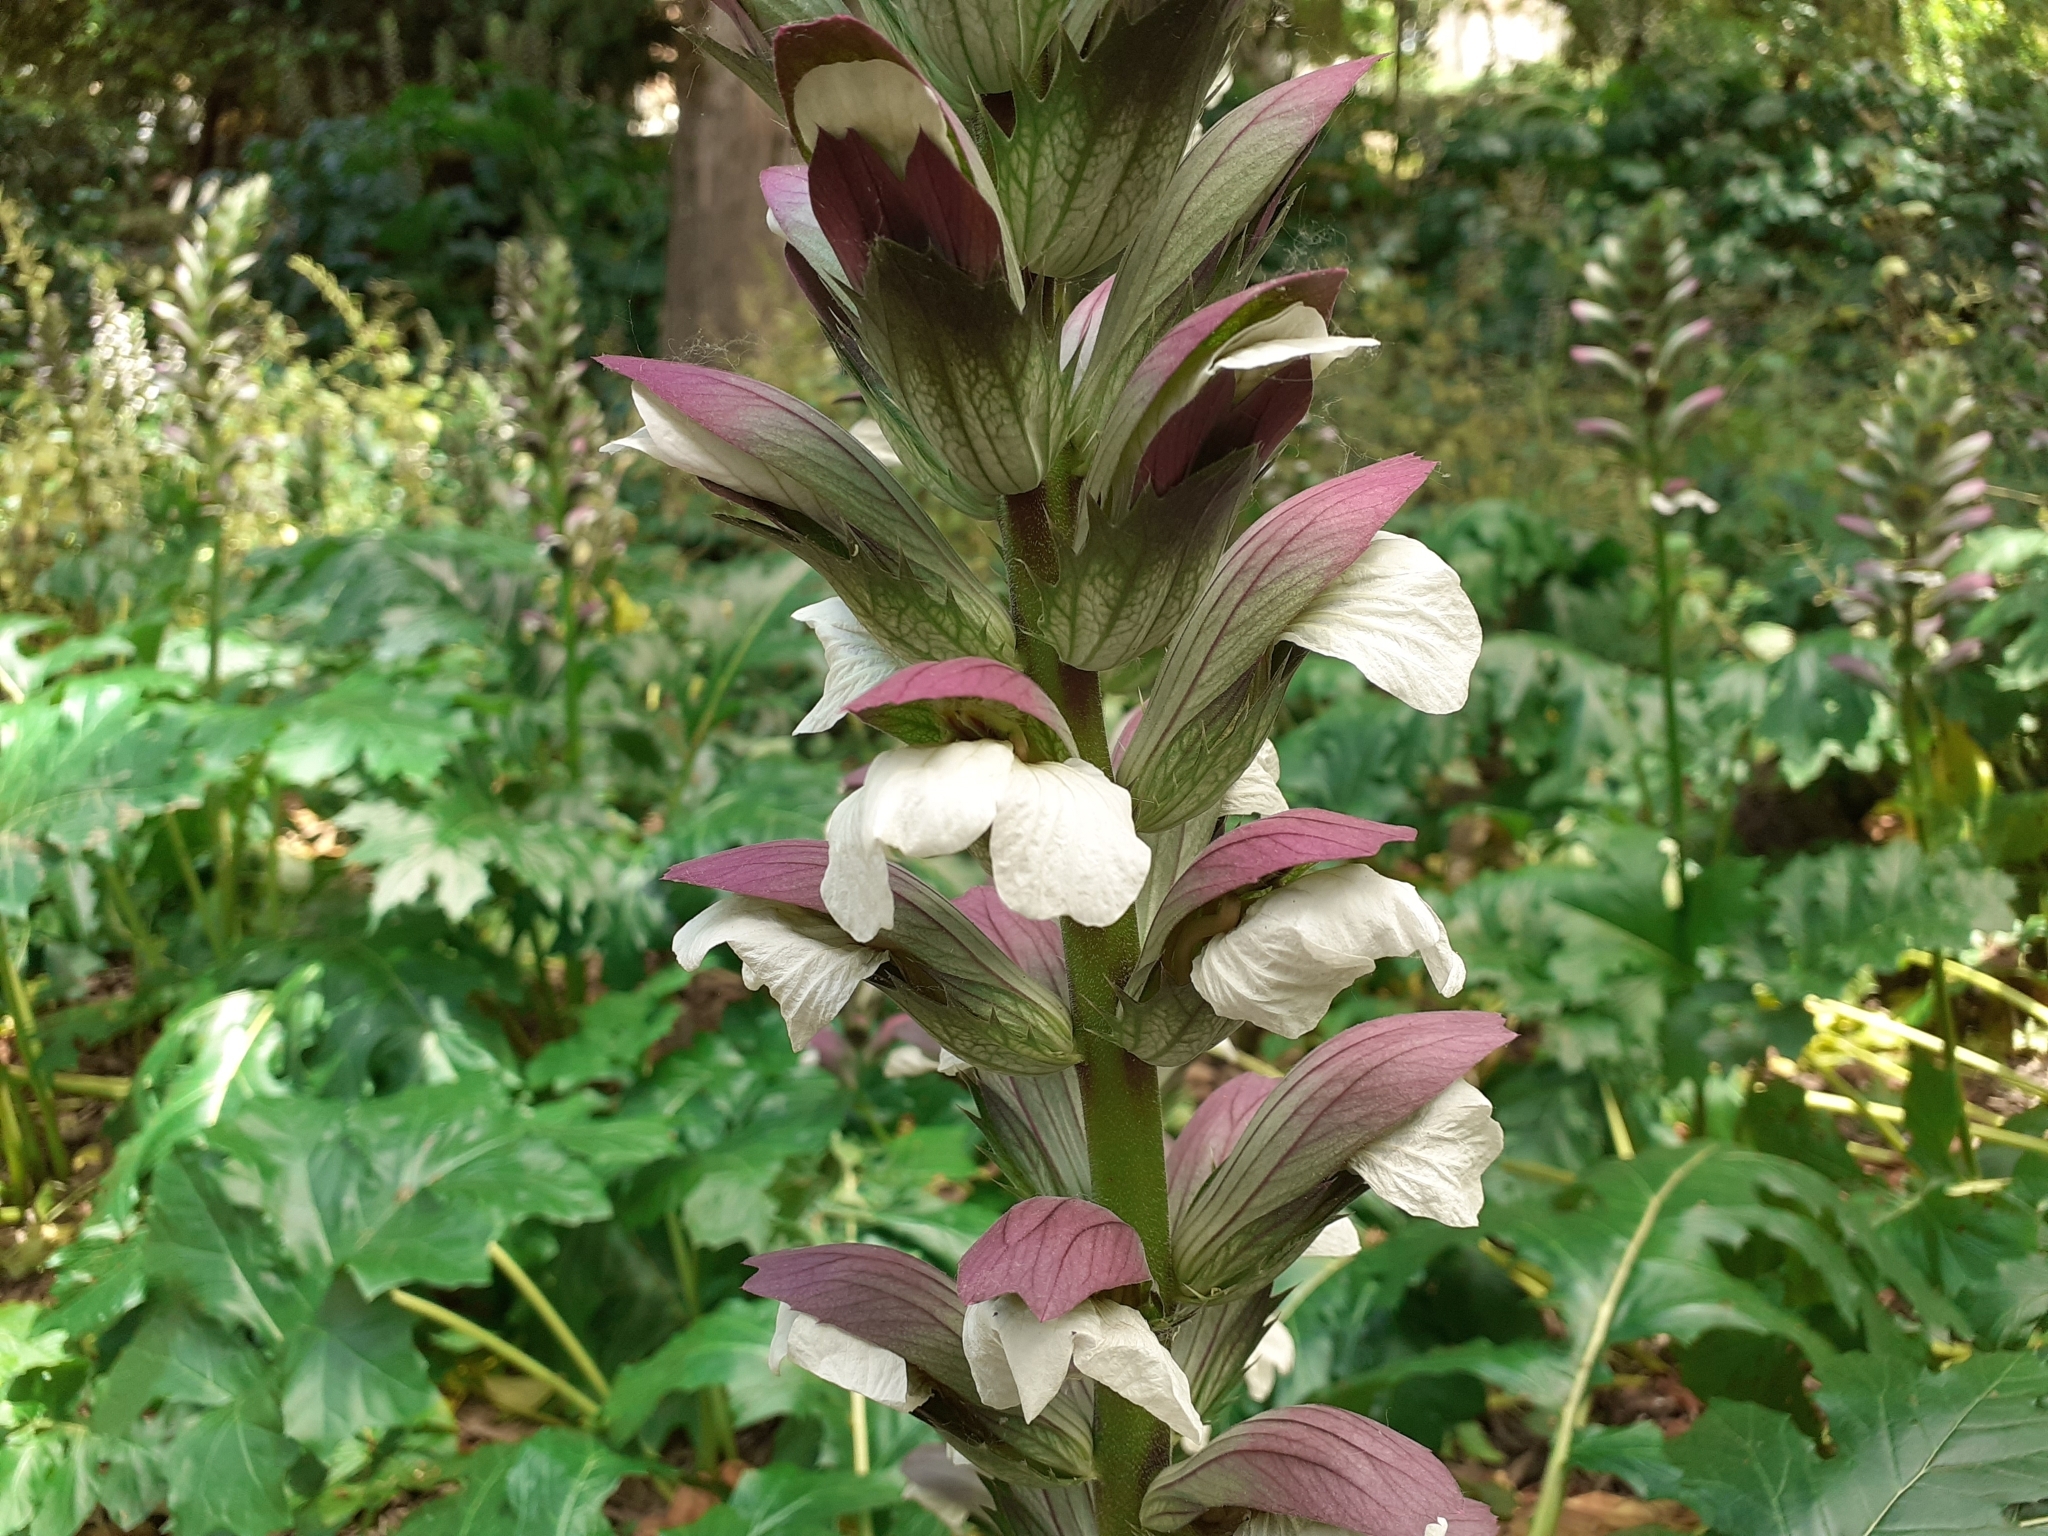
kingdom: Plantae
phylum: Tracheophyta
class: Magnoliopsida
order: Lamiales
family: Acanthaceae
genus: Acanthus
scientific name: Acanthus mollis
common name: Bear's-breech
